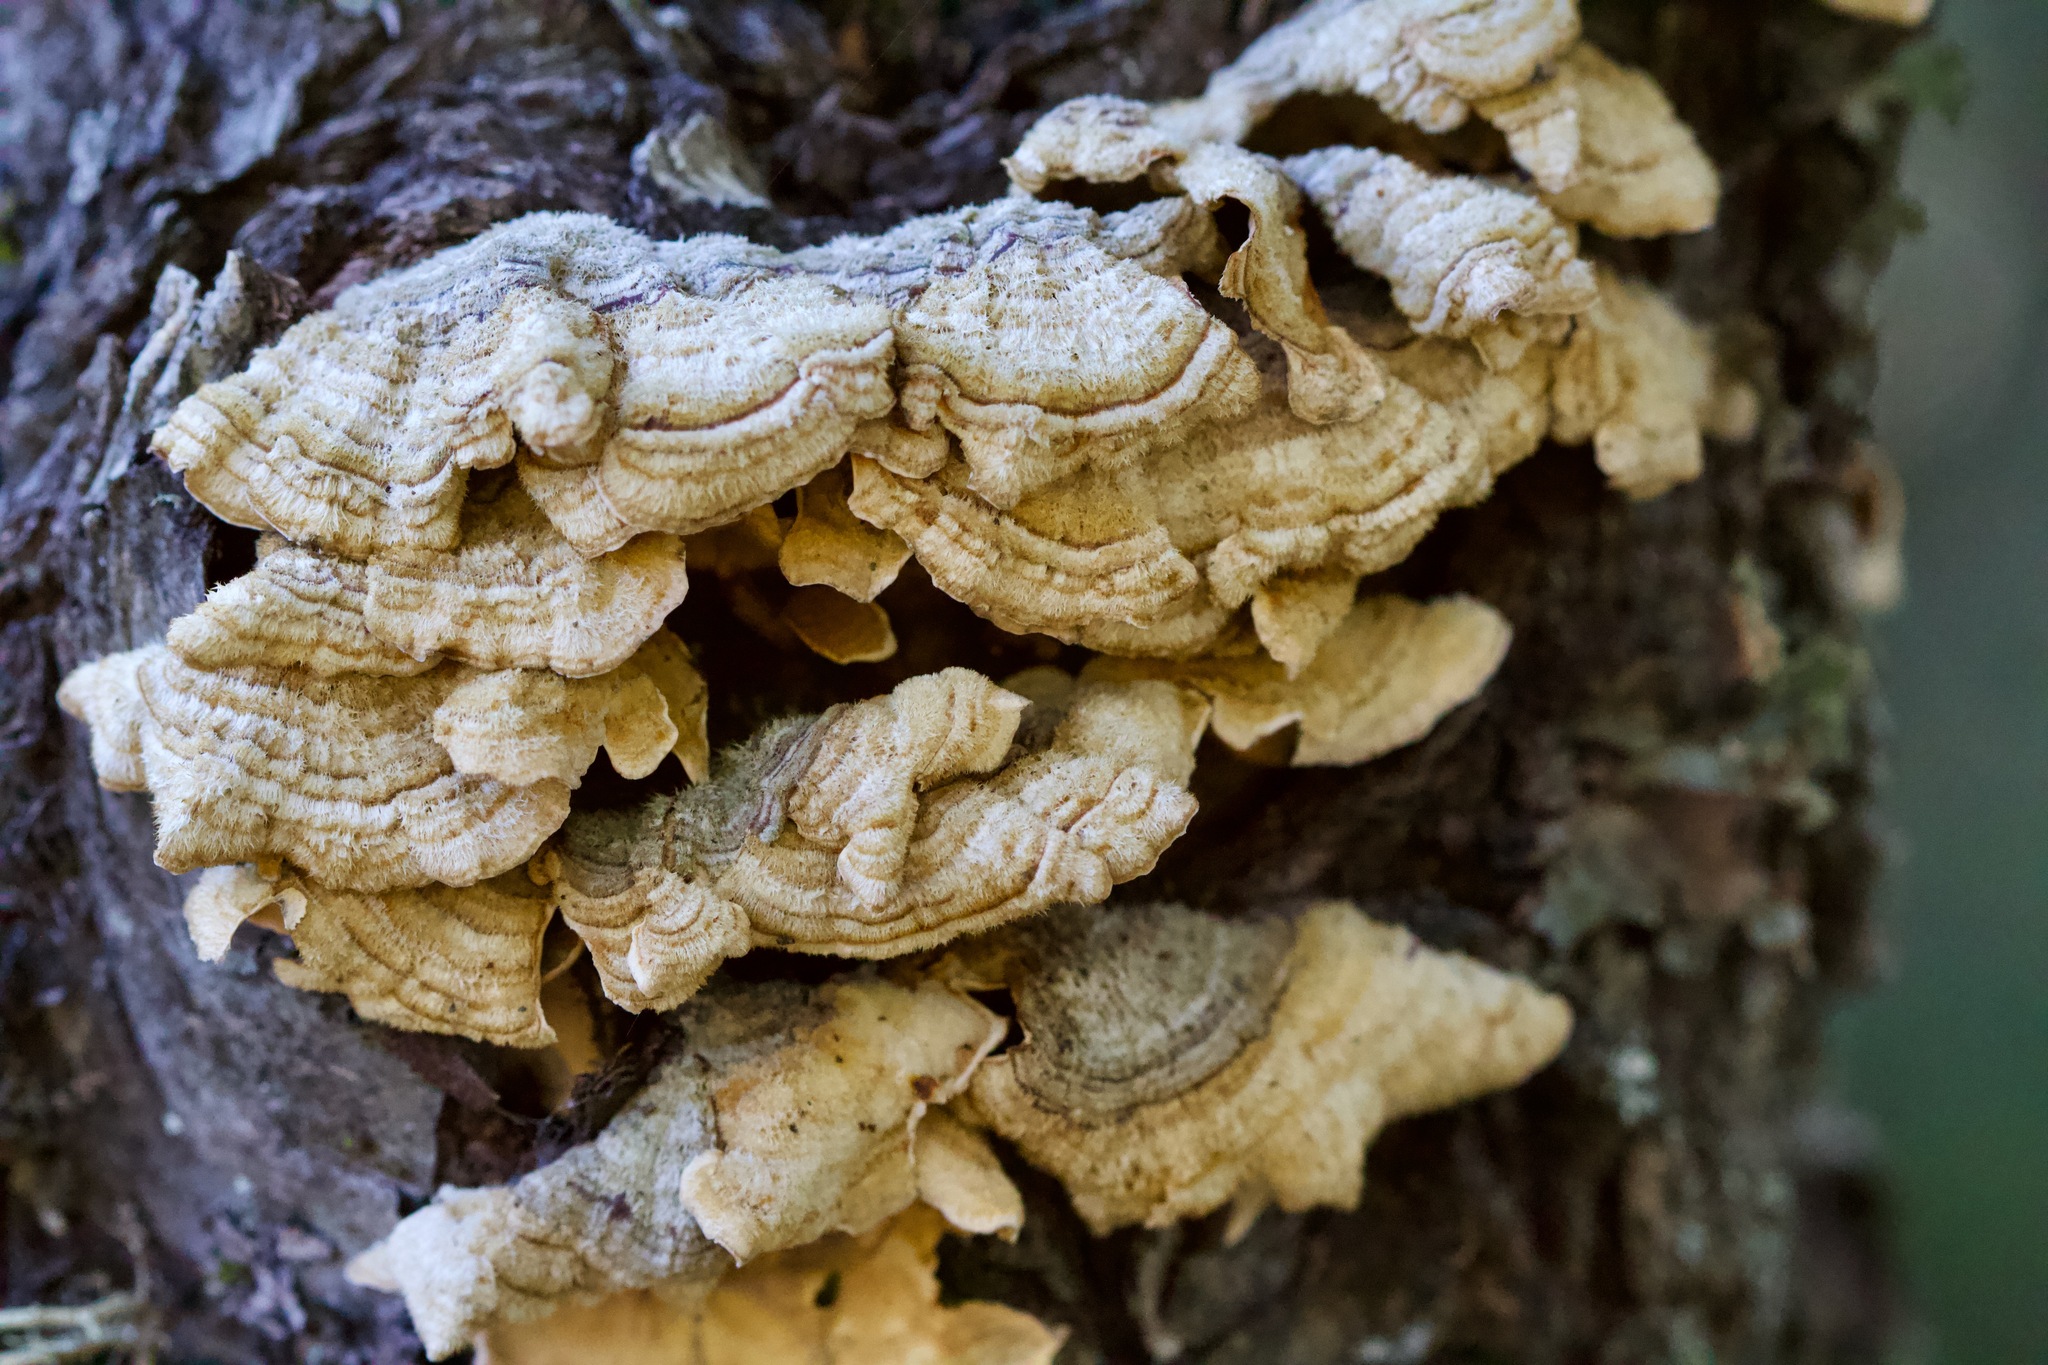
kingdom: Fungi
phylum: Basidiomycota
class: Agaricomycetes
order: Russulales
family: Stereaceae
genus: Stereum
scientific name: Stereum hirsutum
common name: Hairy curtain crust
